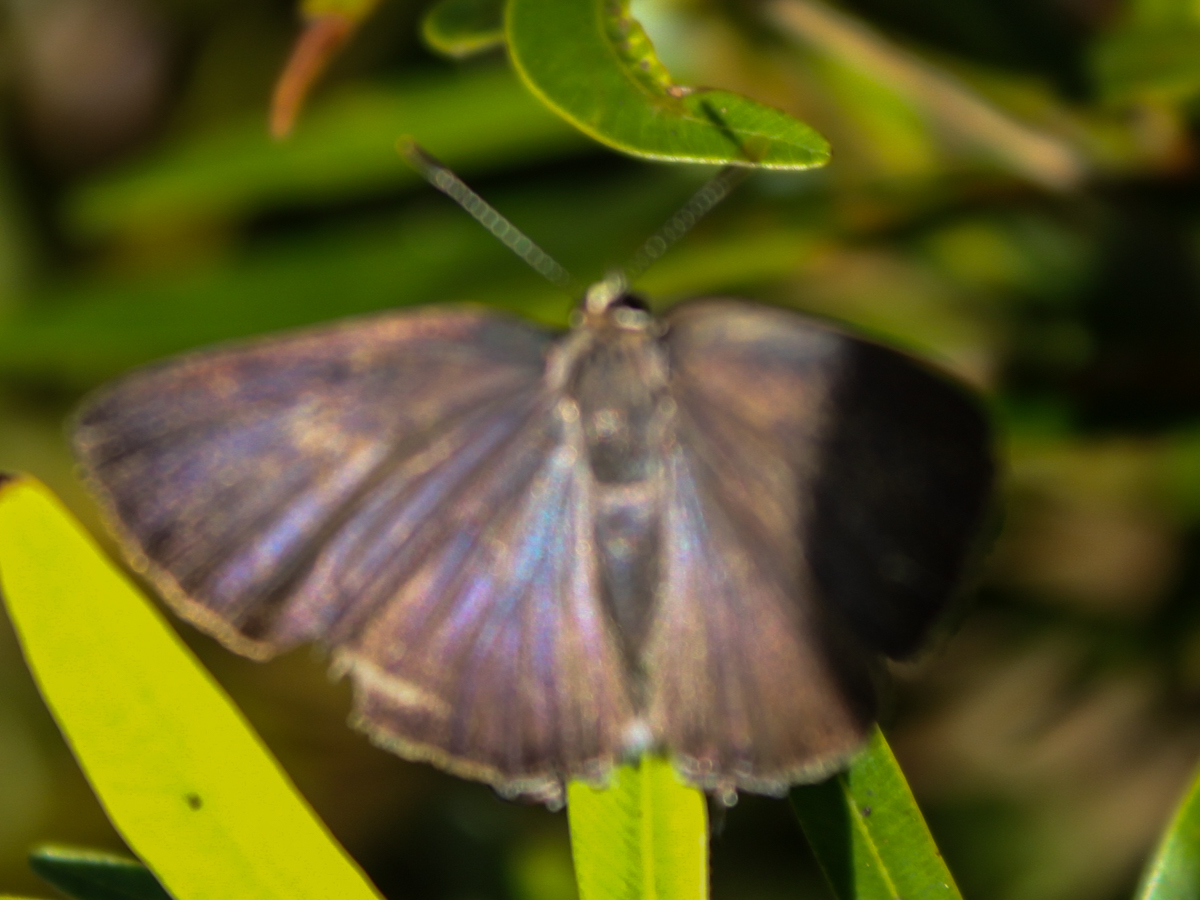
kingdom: Animalia
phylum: Arthropoda
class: Insecta
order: Lepidoptera
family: Lycaenidae
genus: Rapala
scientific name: Rapala manea
